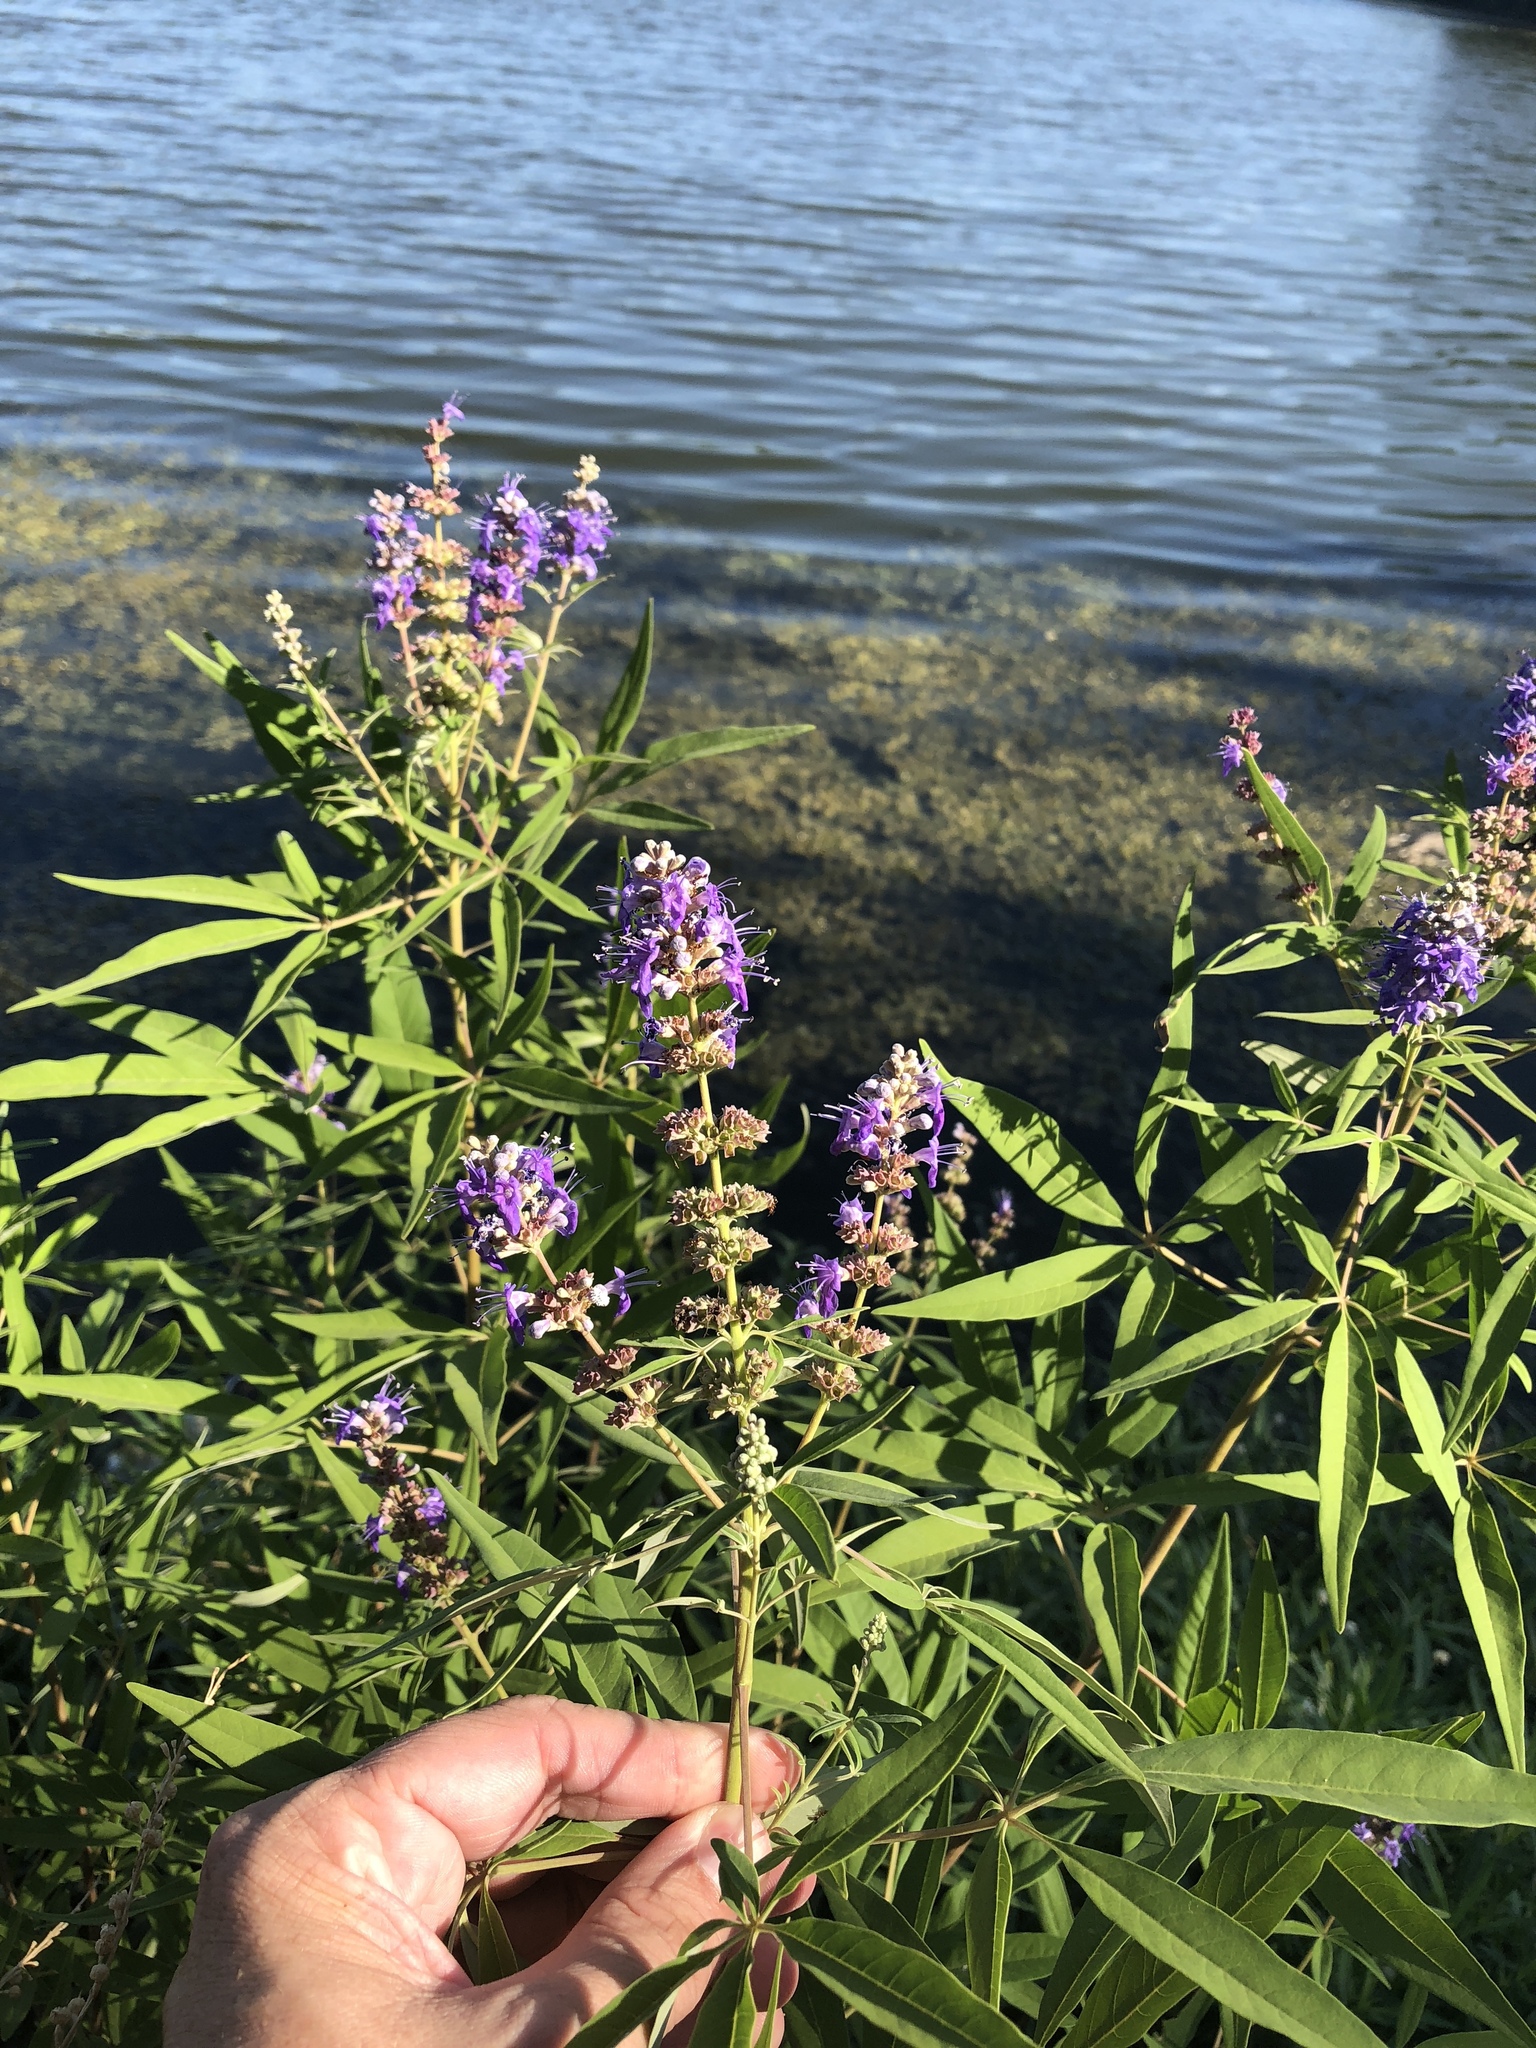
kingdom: Plantae
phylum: Tracheophyta
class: Magnoliopsida
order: Lamiales
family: Lamiaceae
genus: Vitex
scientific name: Vitex agnus-castus
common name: Chasteberry
